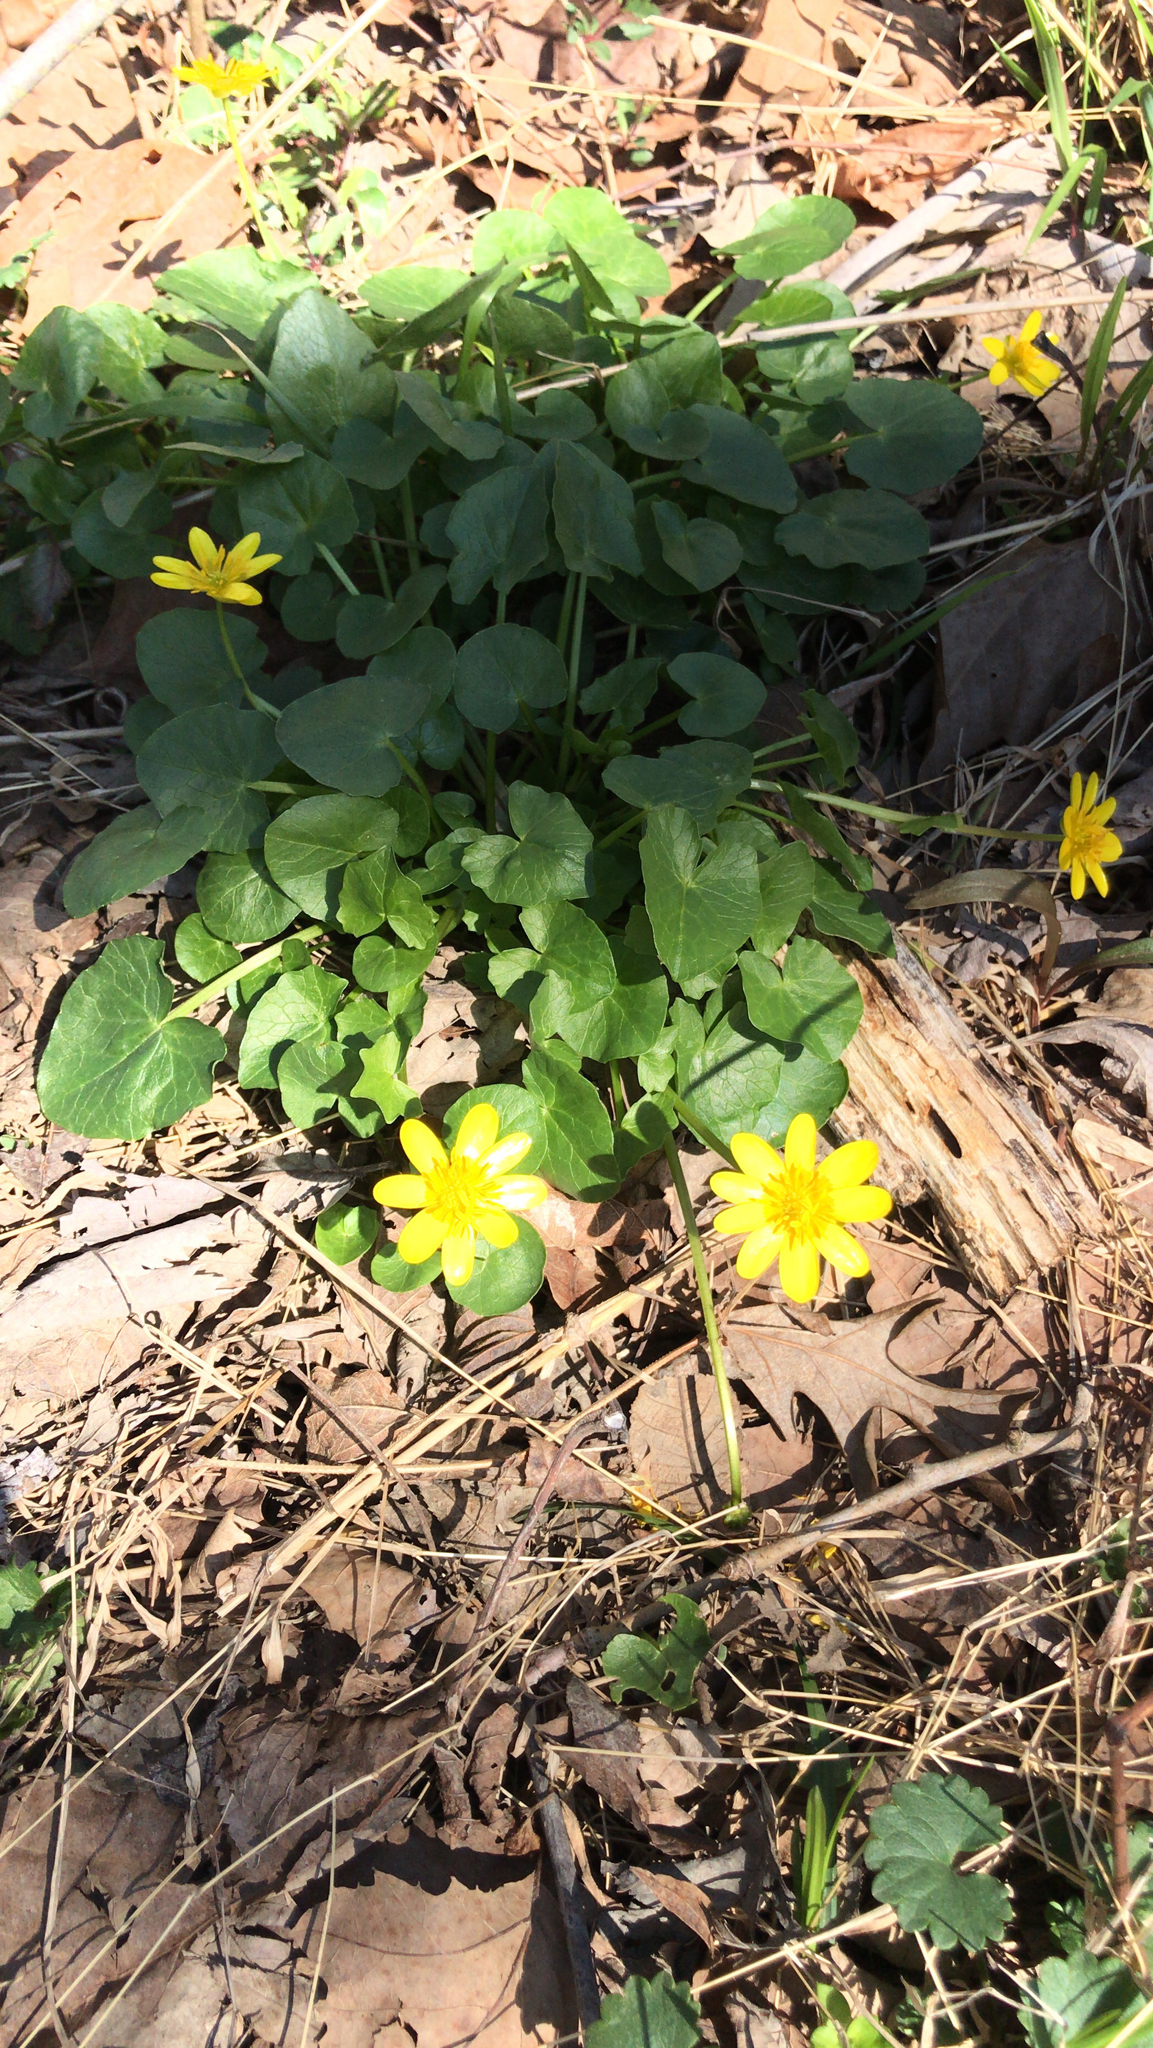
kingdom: Plantae
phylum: Tracheophyta
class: Magnoliopsida
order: Ranunculales
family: Ranunculaceae
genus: Ficaria
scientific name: Ficaria verna
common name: Lesser celandine
